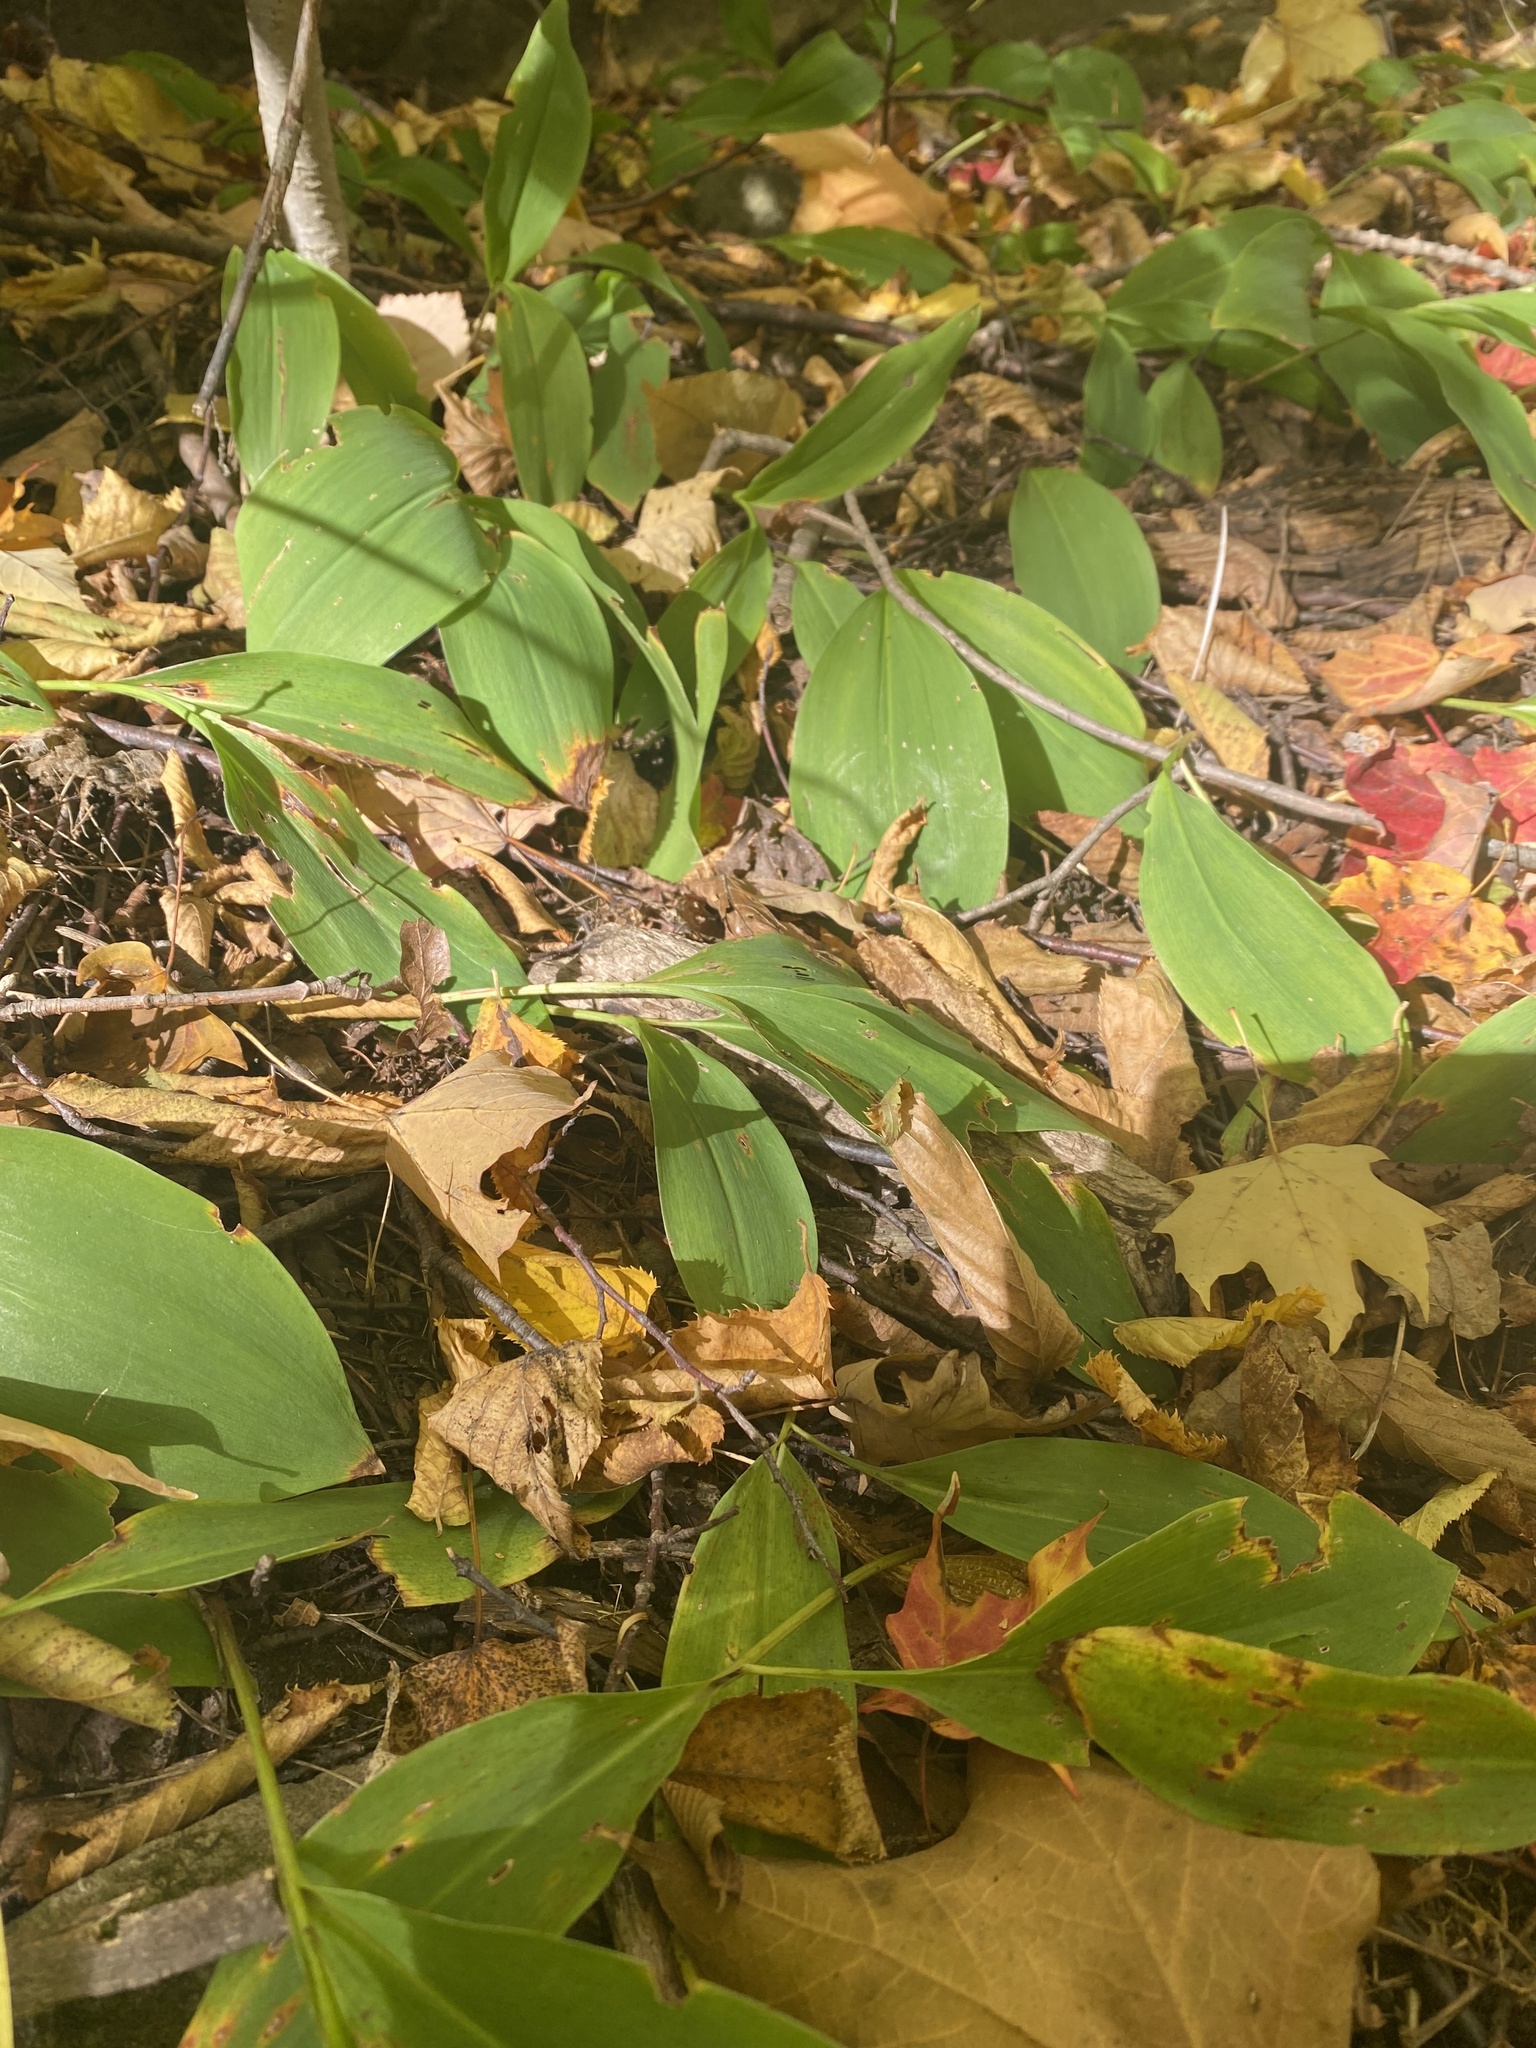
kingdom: Plantae
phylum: Tracheophyta
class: Liliopsida
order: Asparagales
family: Asparagaceae
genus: Convallaria
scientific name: Convallaria majalis
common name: Lily-of-the-valley
